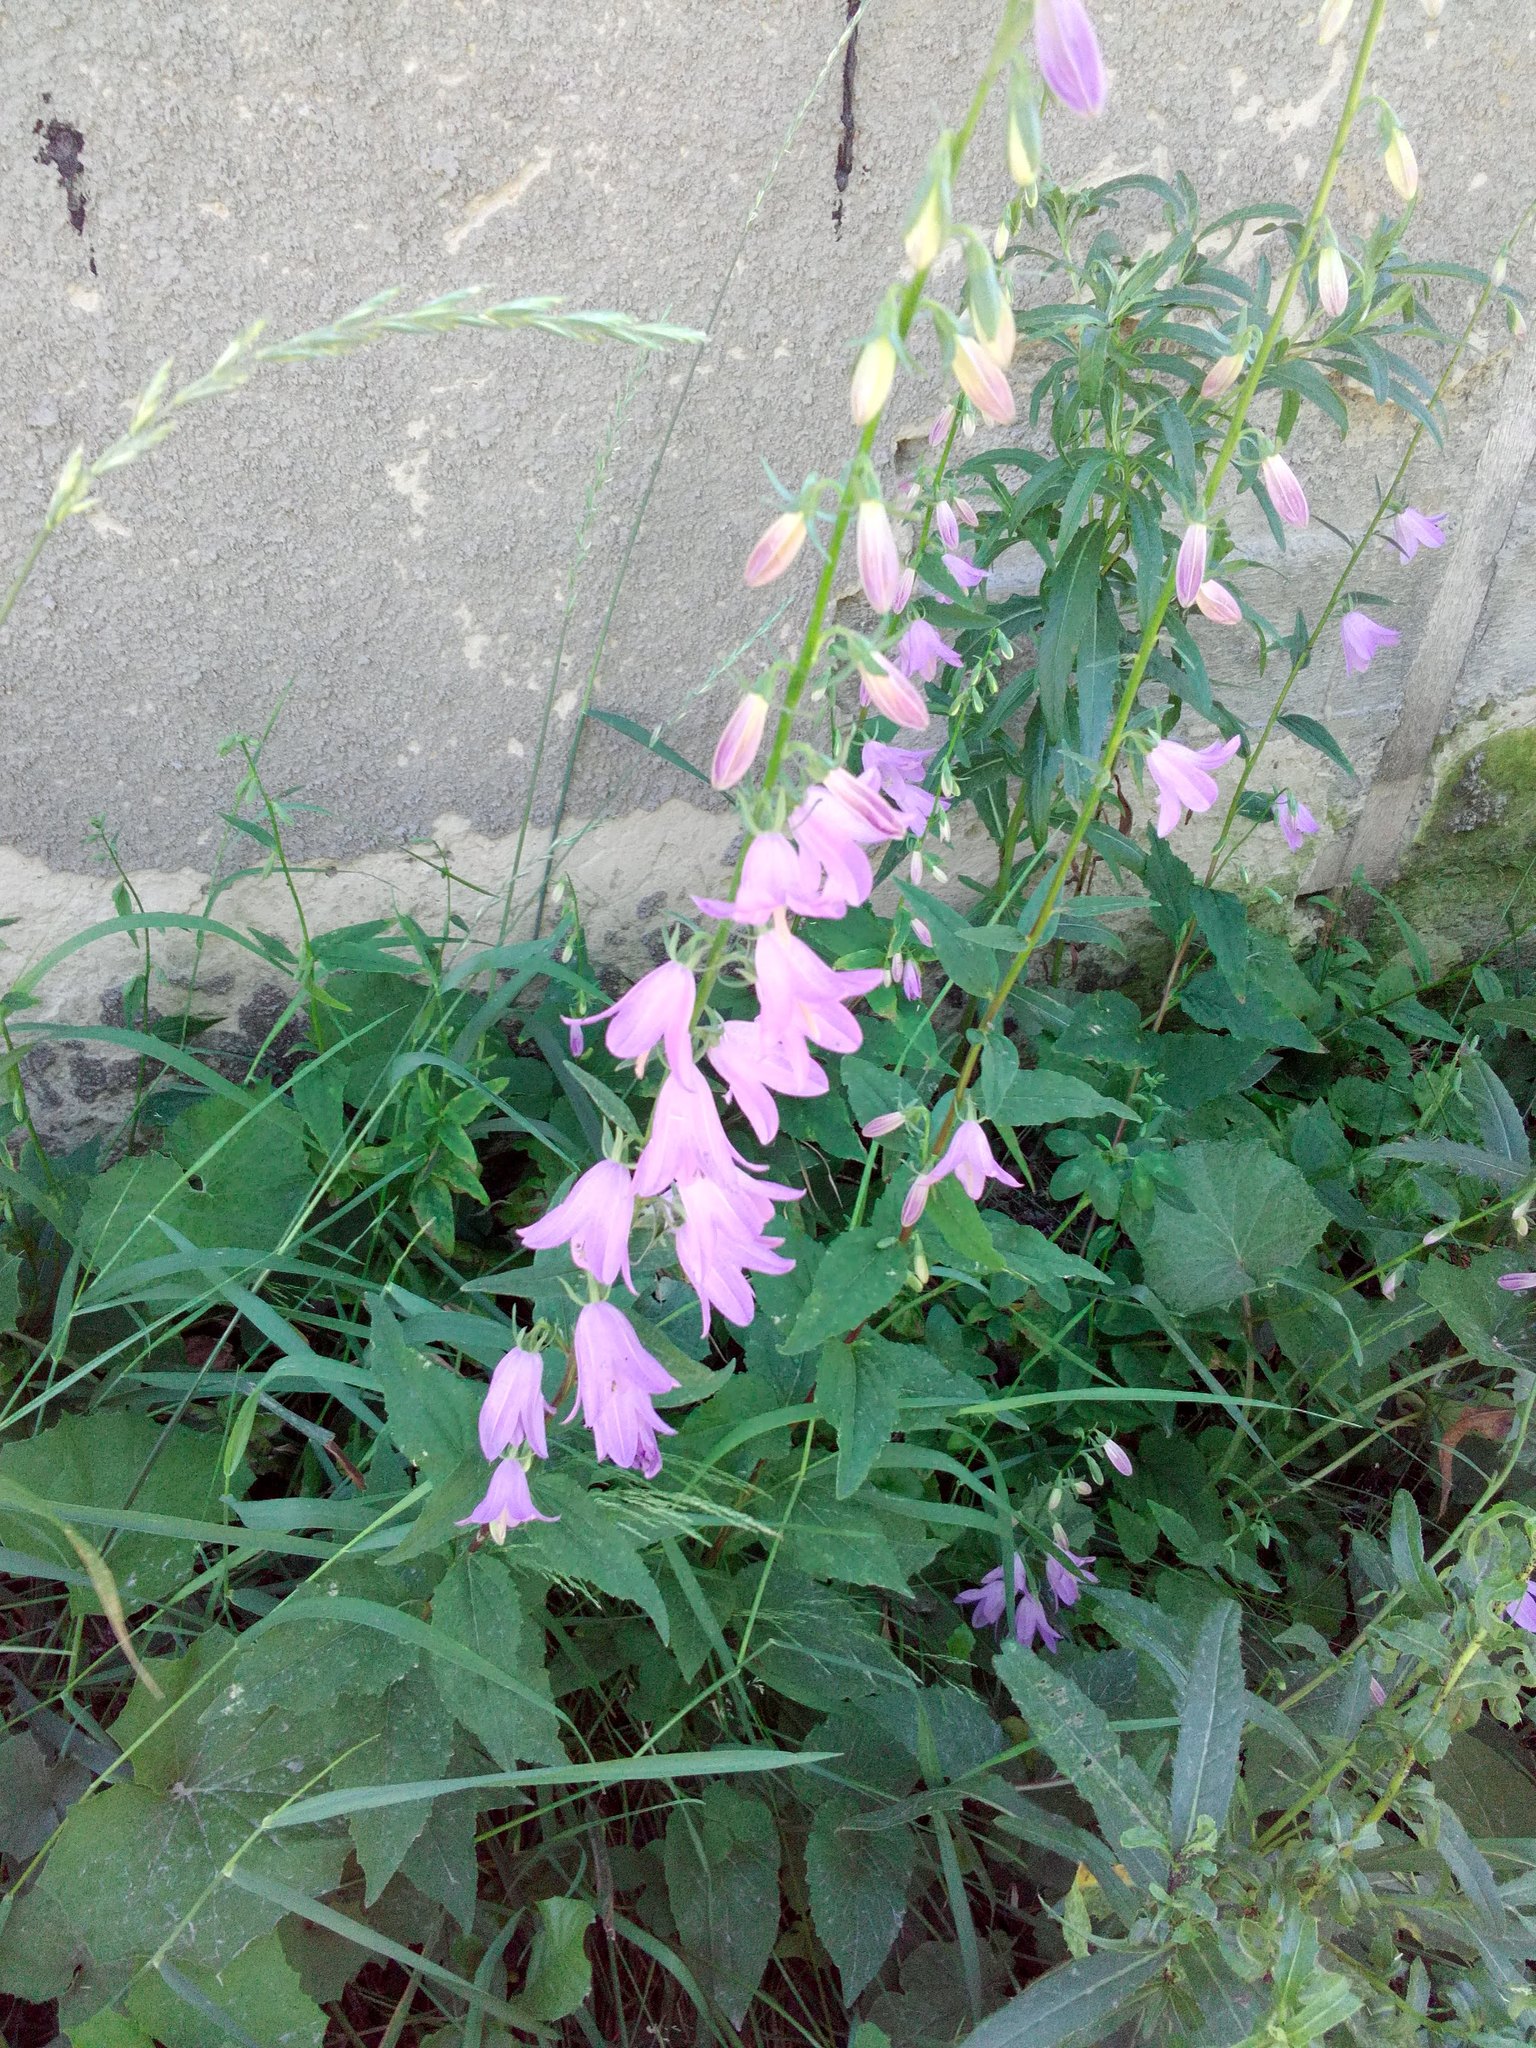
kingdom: Plantae
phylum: Tracheophyta
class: Magnoliopsida
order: Asterales
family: Campanulaceae
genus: Campanula
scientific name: Campanula rapunculoides
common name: Creeping bellflower
